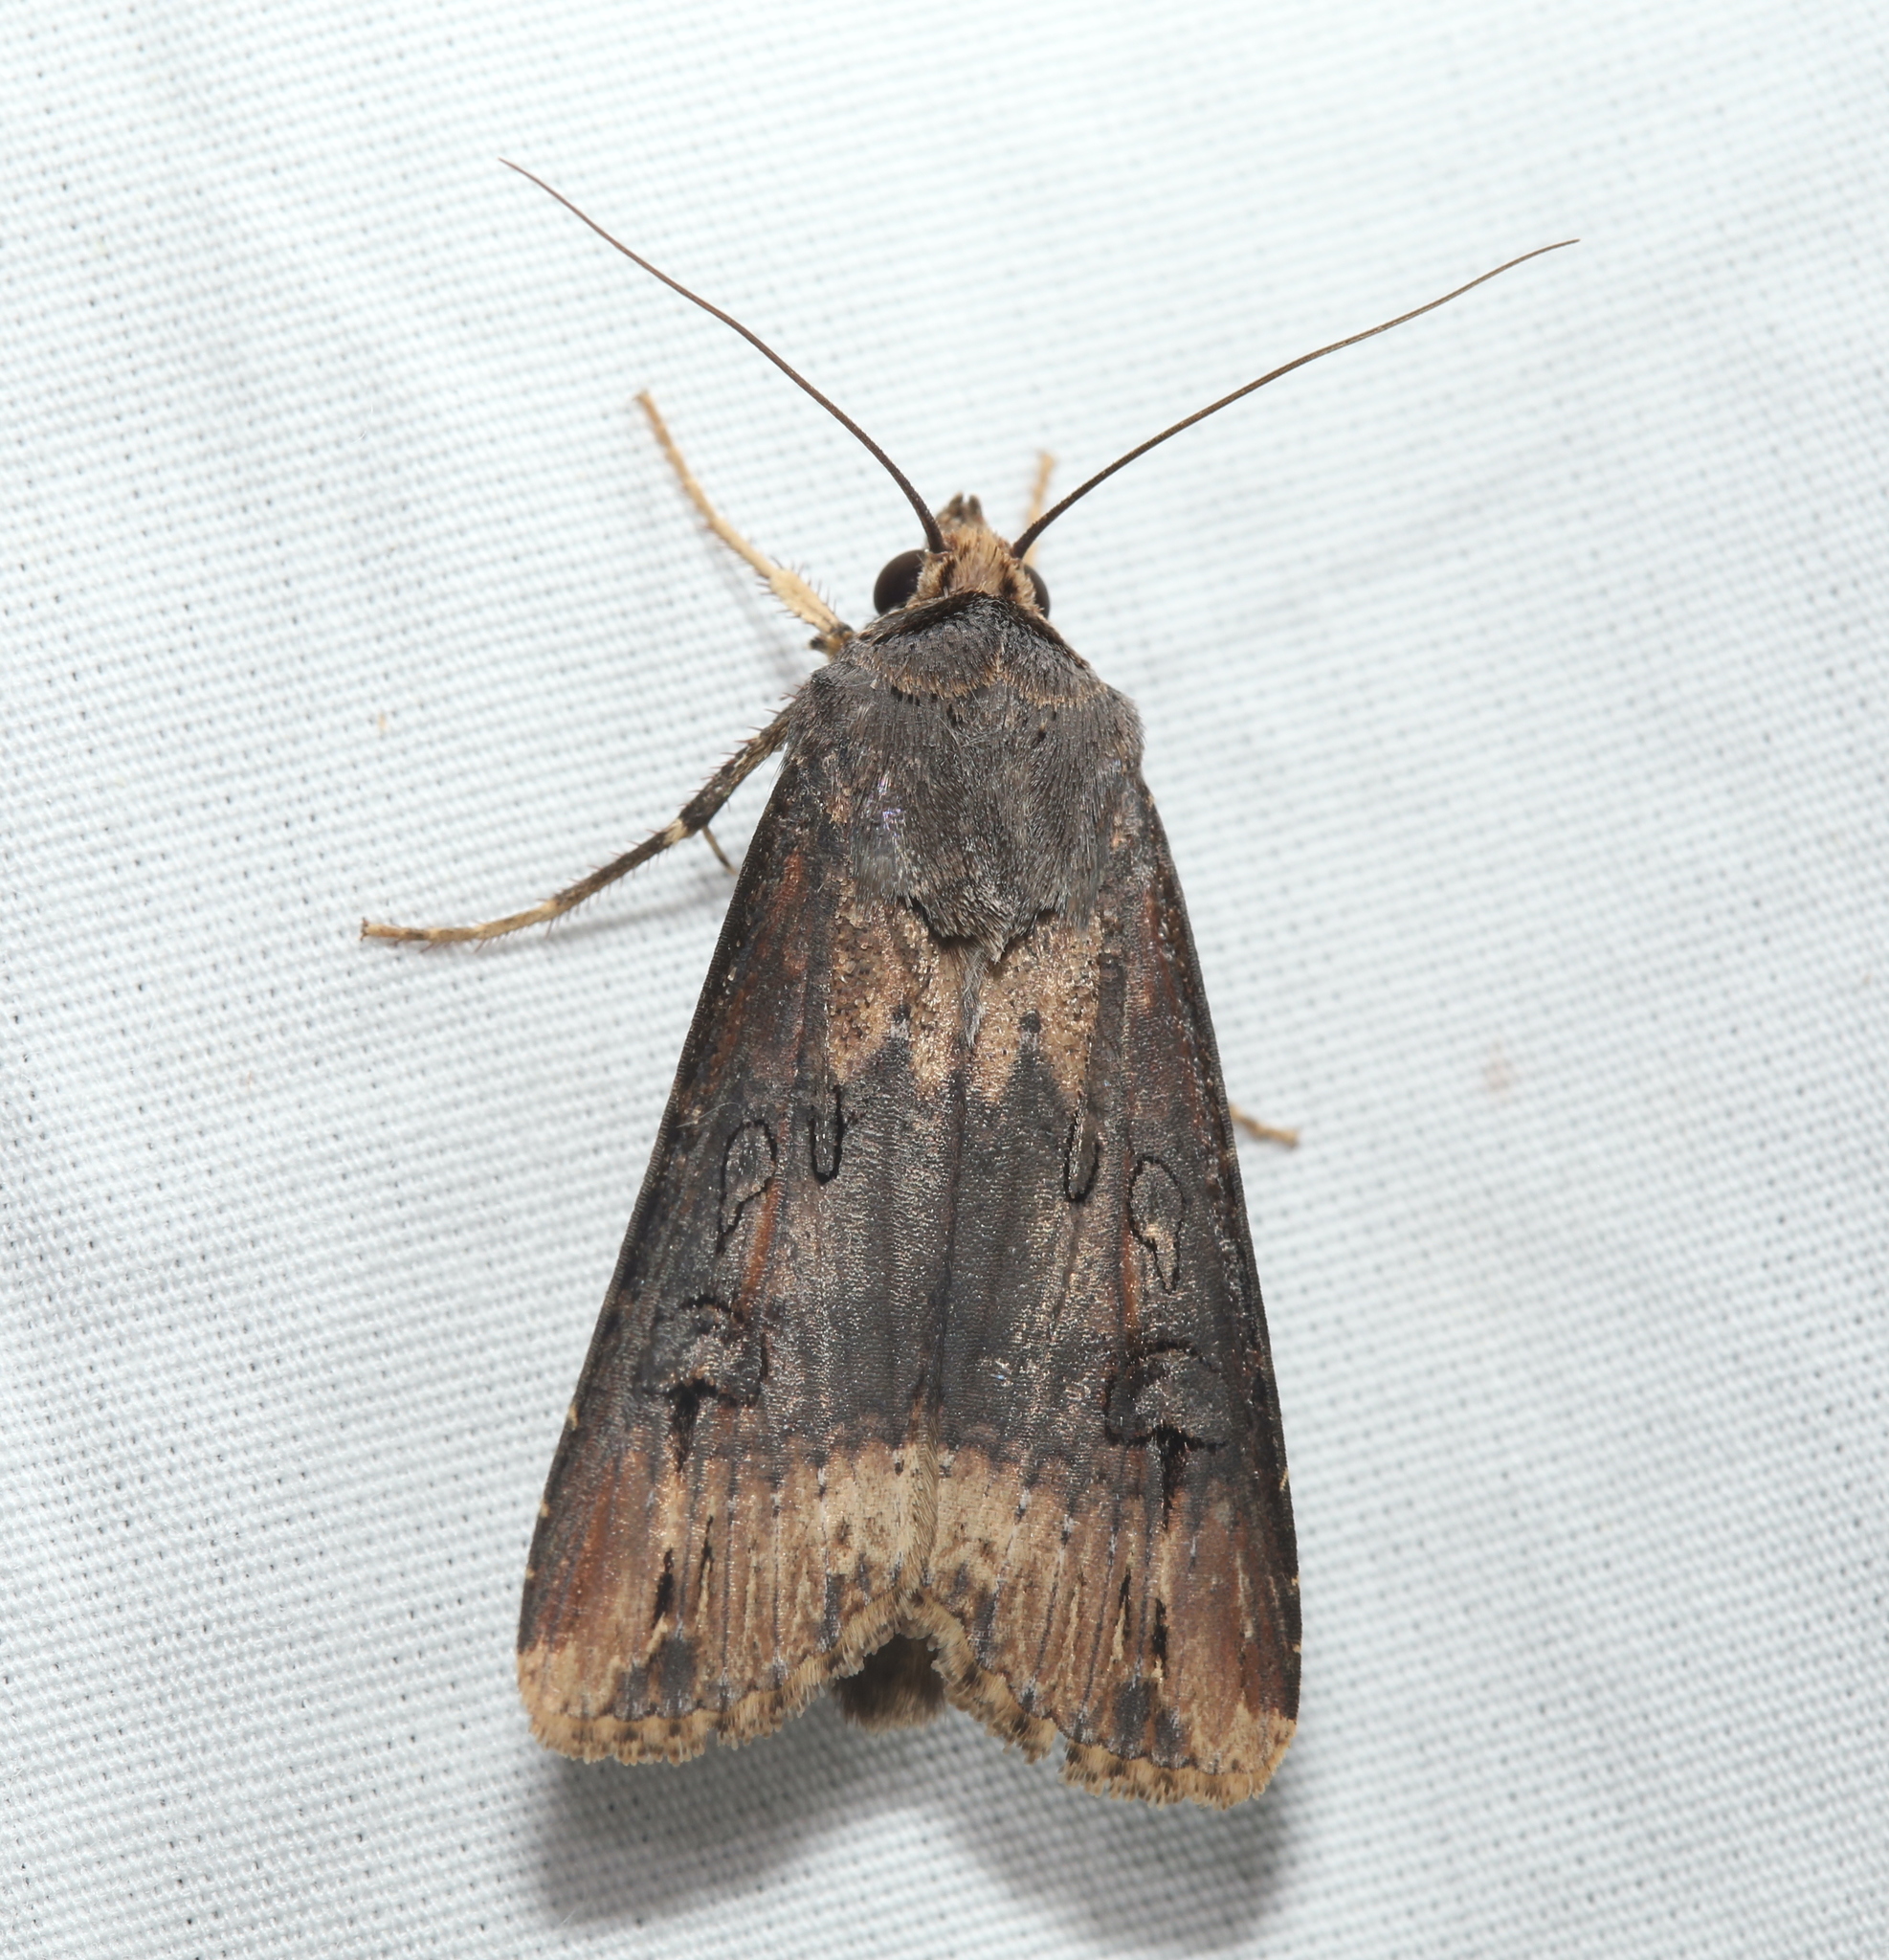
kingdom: Animalia
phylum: Arthropoda
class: Insecta
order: Lepidoptera
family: Noctuidae
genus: Agrotis
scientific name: Agrotis ipsilon
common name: Dark sword-grass
